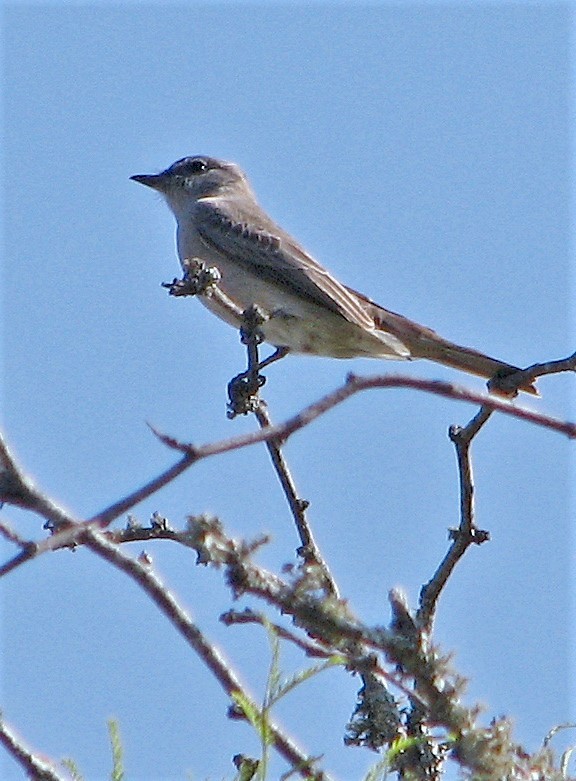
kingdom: Animalia
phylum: Chordata
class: Aves
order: Passeriformes
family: Tyrannidae
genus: Suiriri
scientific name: Suiriri suiriri
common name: Suiriri flycatcher
